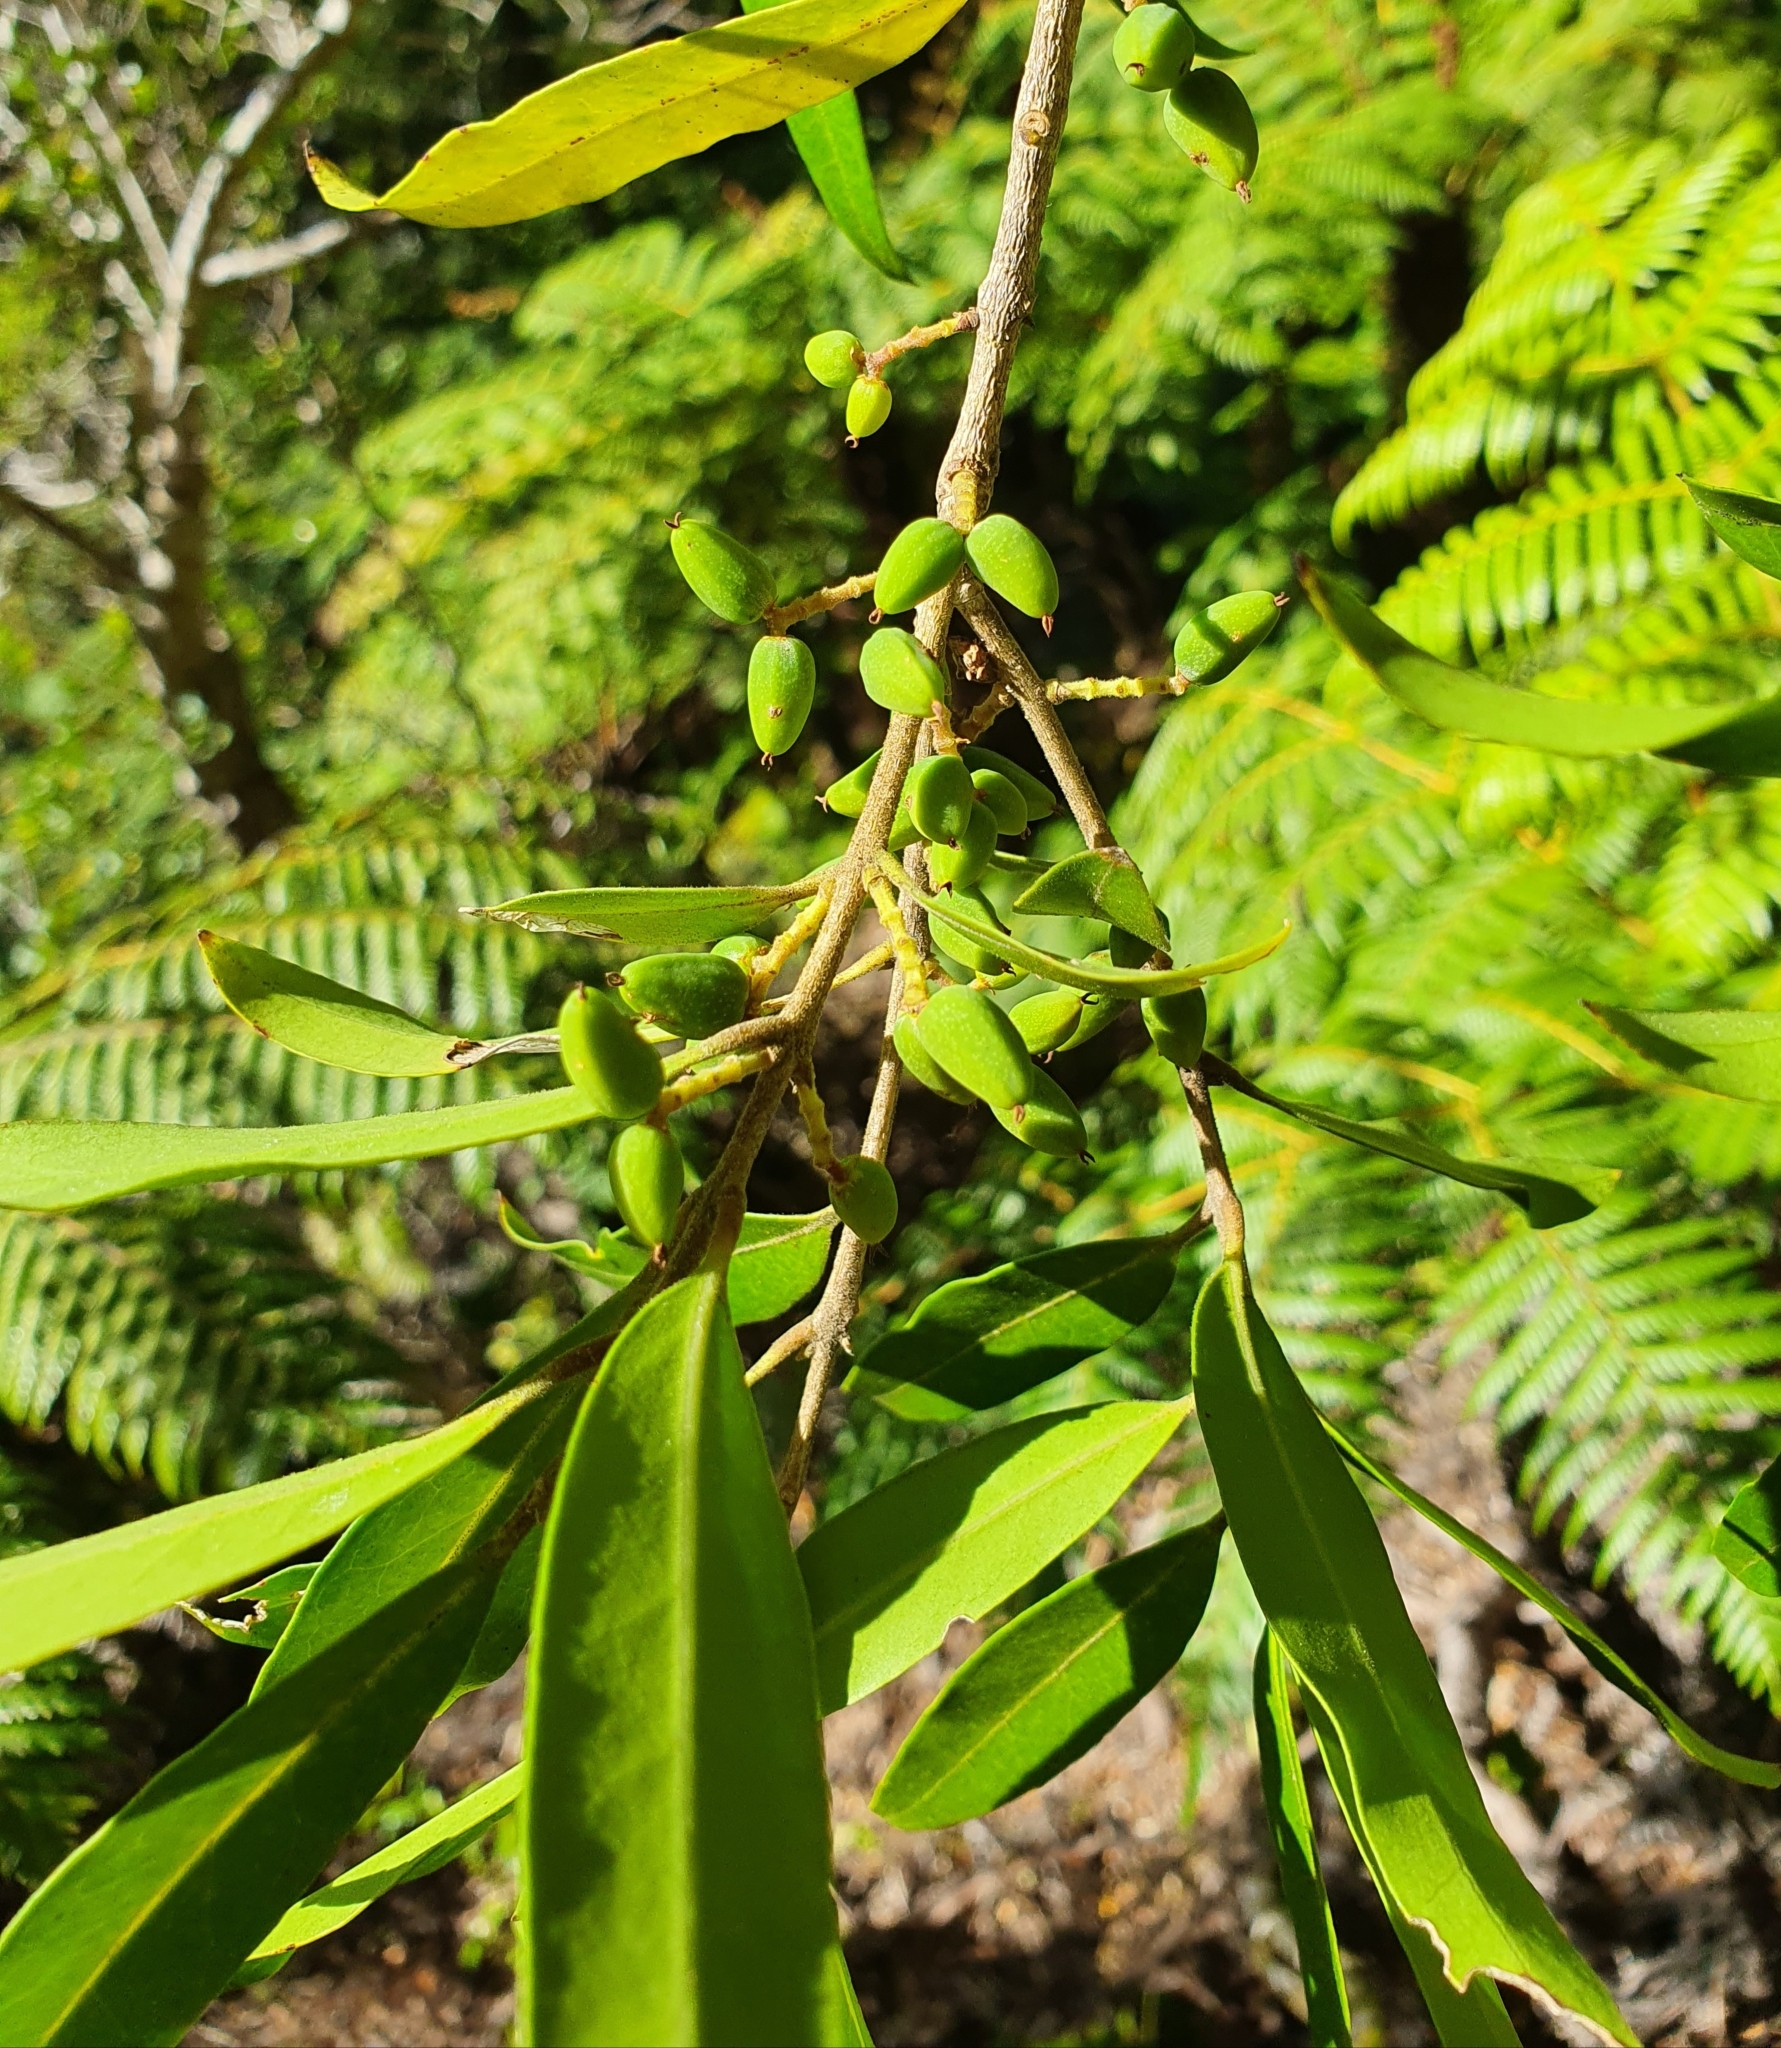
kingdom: Plantae
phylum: Tracheophyta
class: Magnoliopsida
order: Lamiales
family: Oleaceae
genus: Nestegis
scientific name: Nestegis lanceolata
